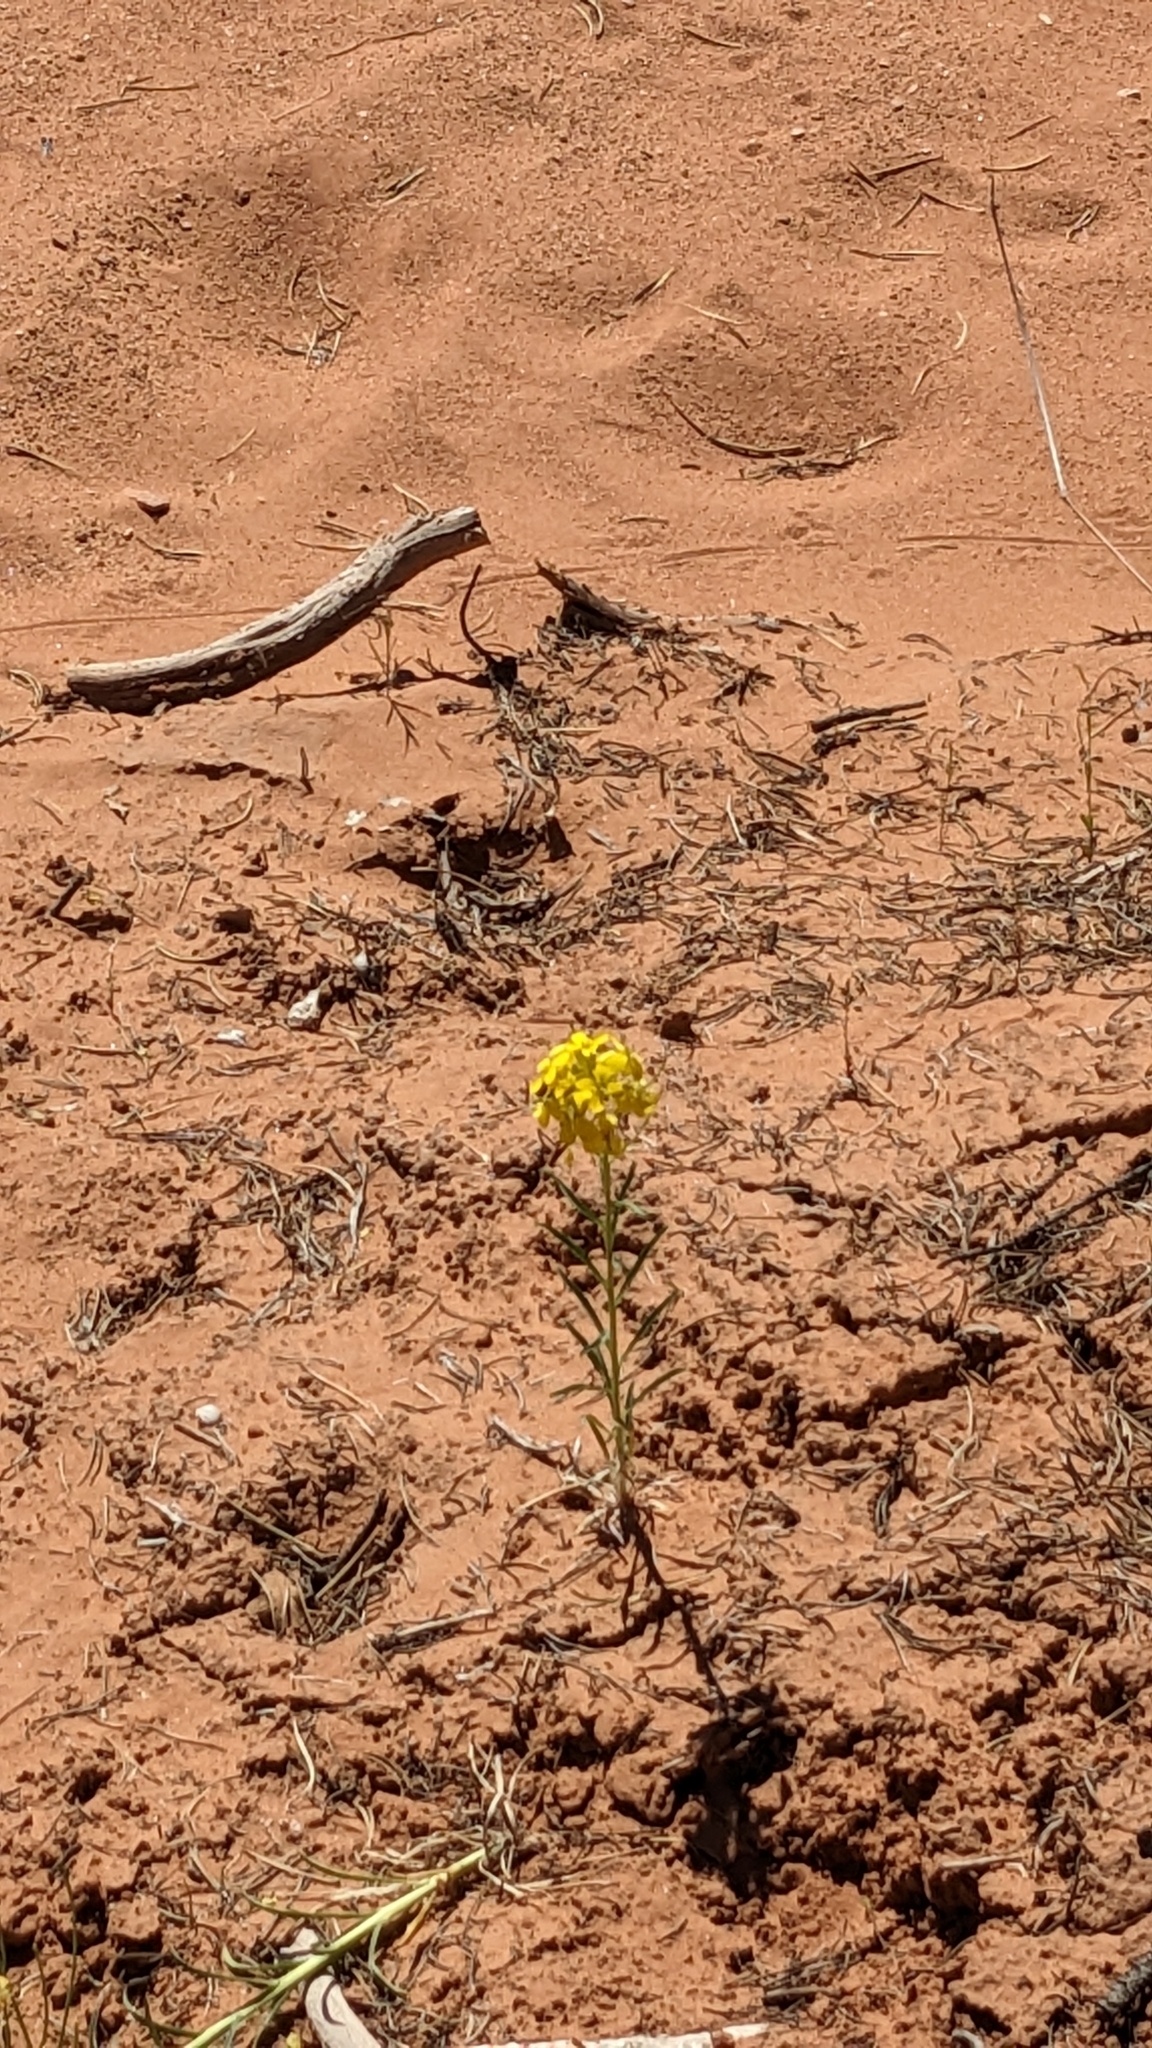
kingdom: Plantae
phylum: Tracheophyta
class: Magnoliopsida
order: Brassicales
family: Brassicaceae
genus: Erysimum
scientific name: Erysimum capitatum
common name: Western wallflower
